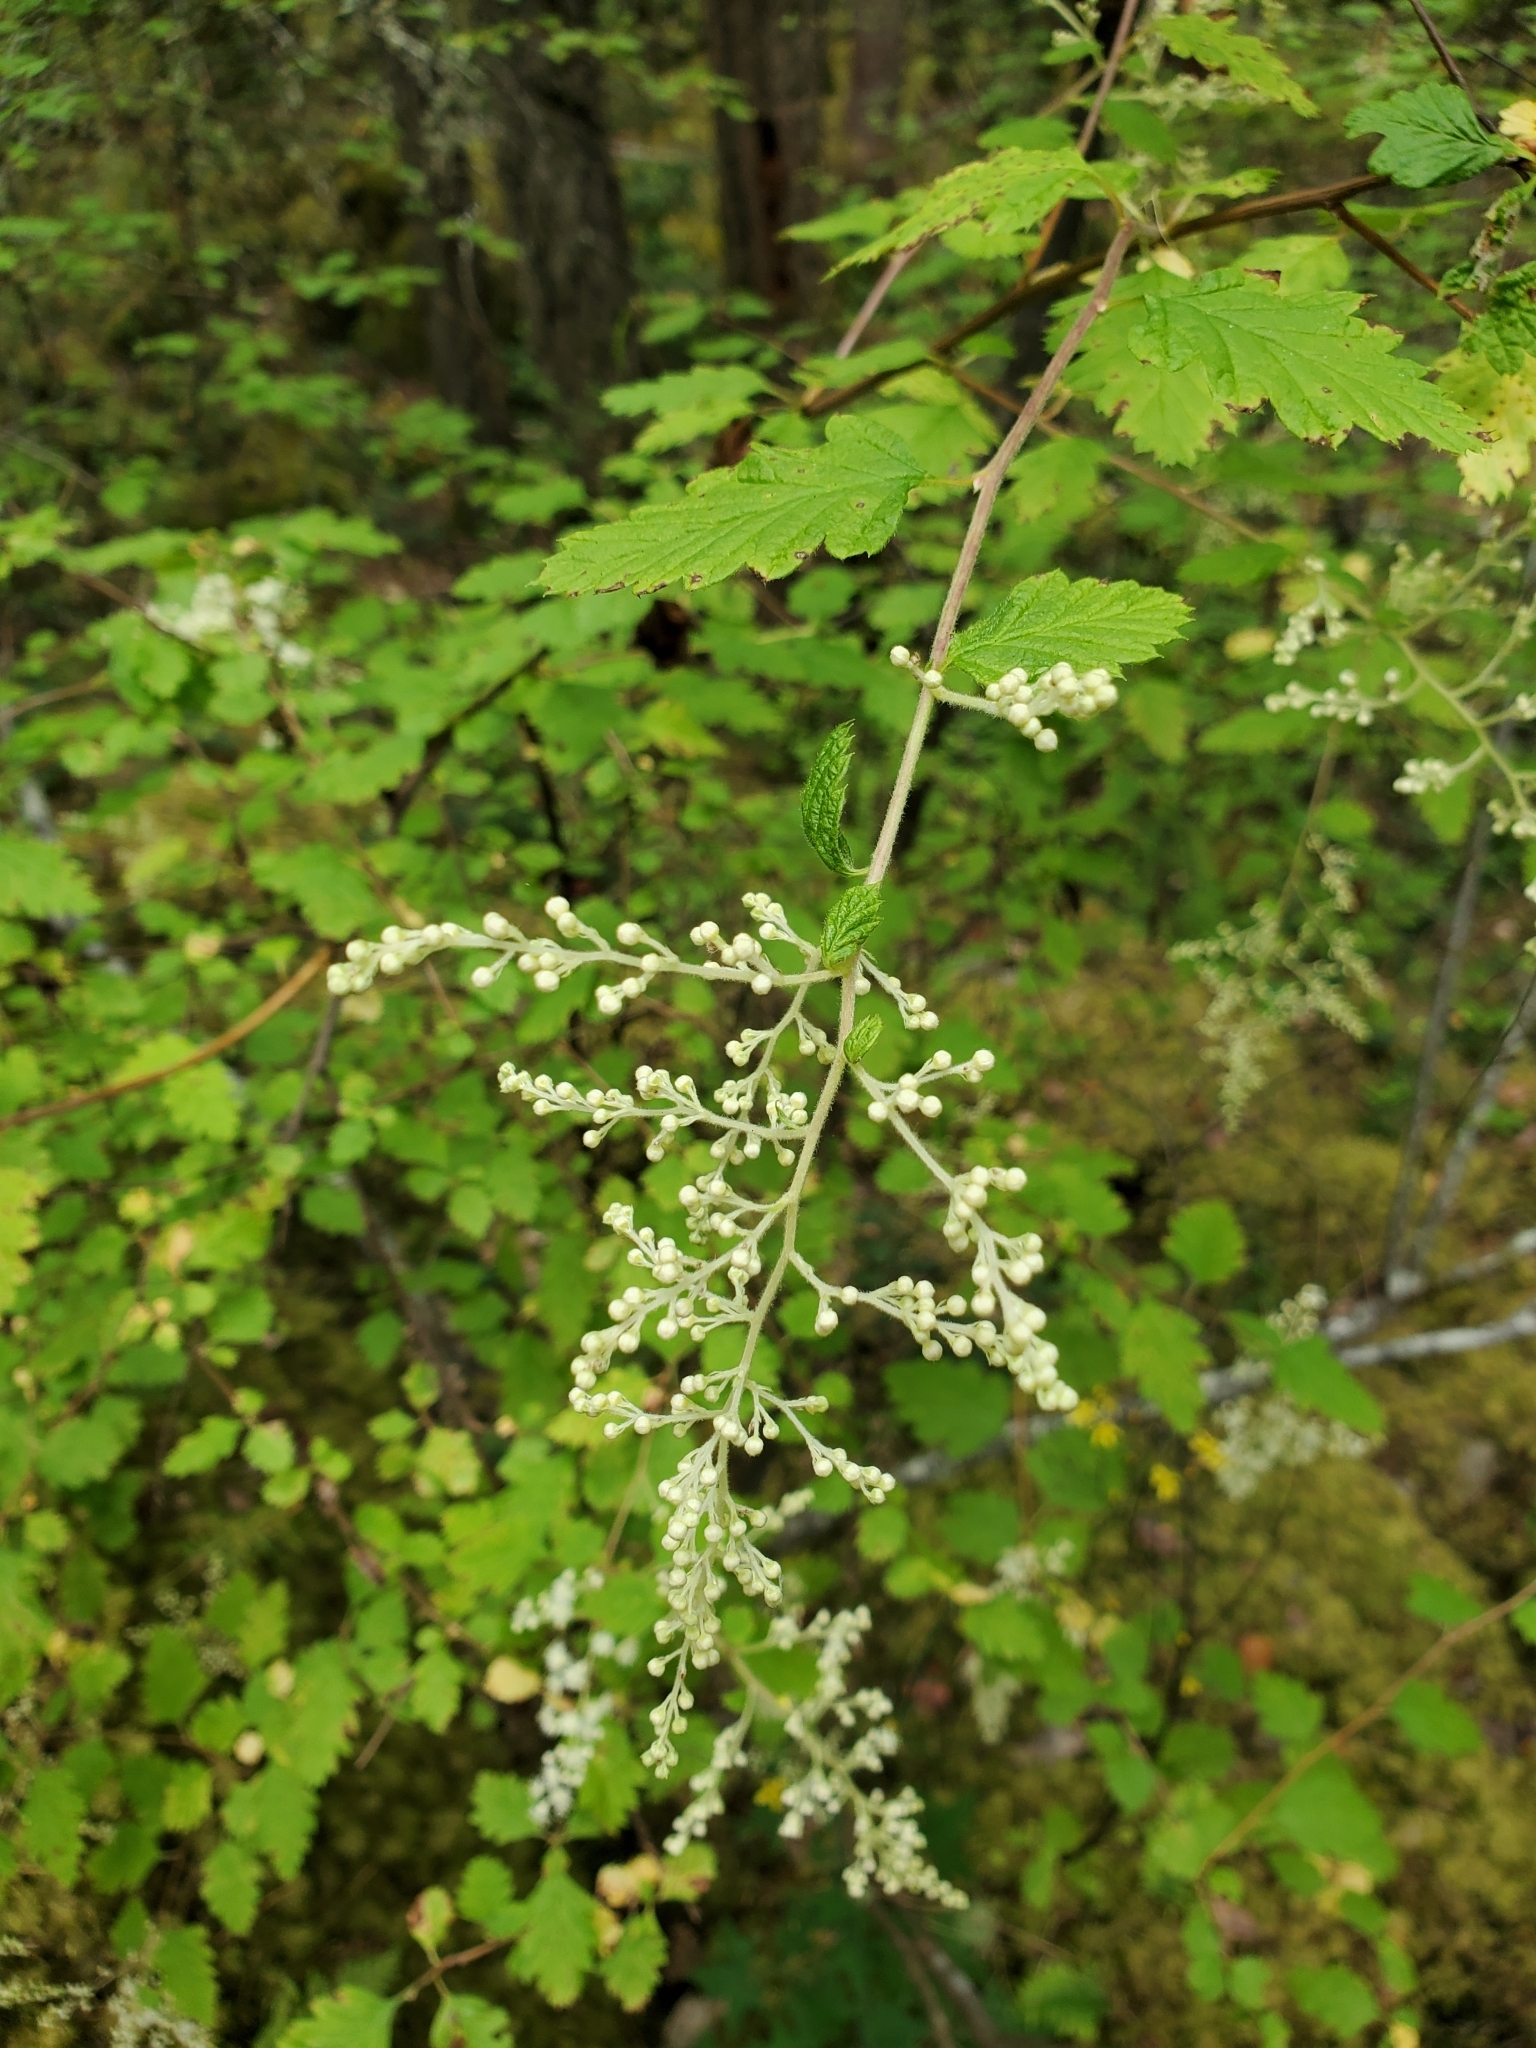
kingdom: Plantae
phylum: Tracheophyta
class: Magnoliopsida
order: Rosales
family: Rosaceae
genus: Holodiscus
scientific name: Holodiscus discolor
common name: Oceanspray
